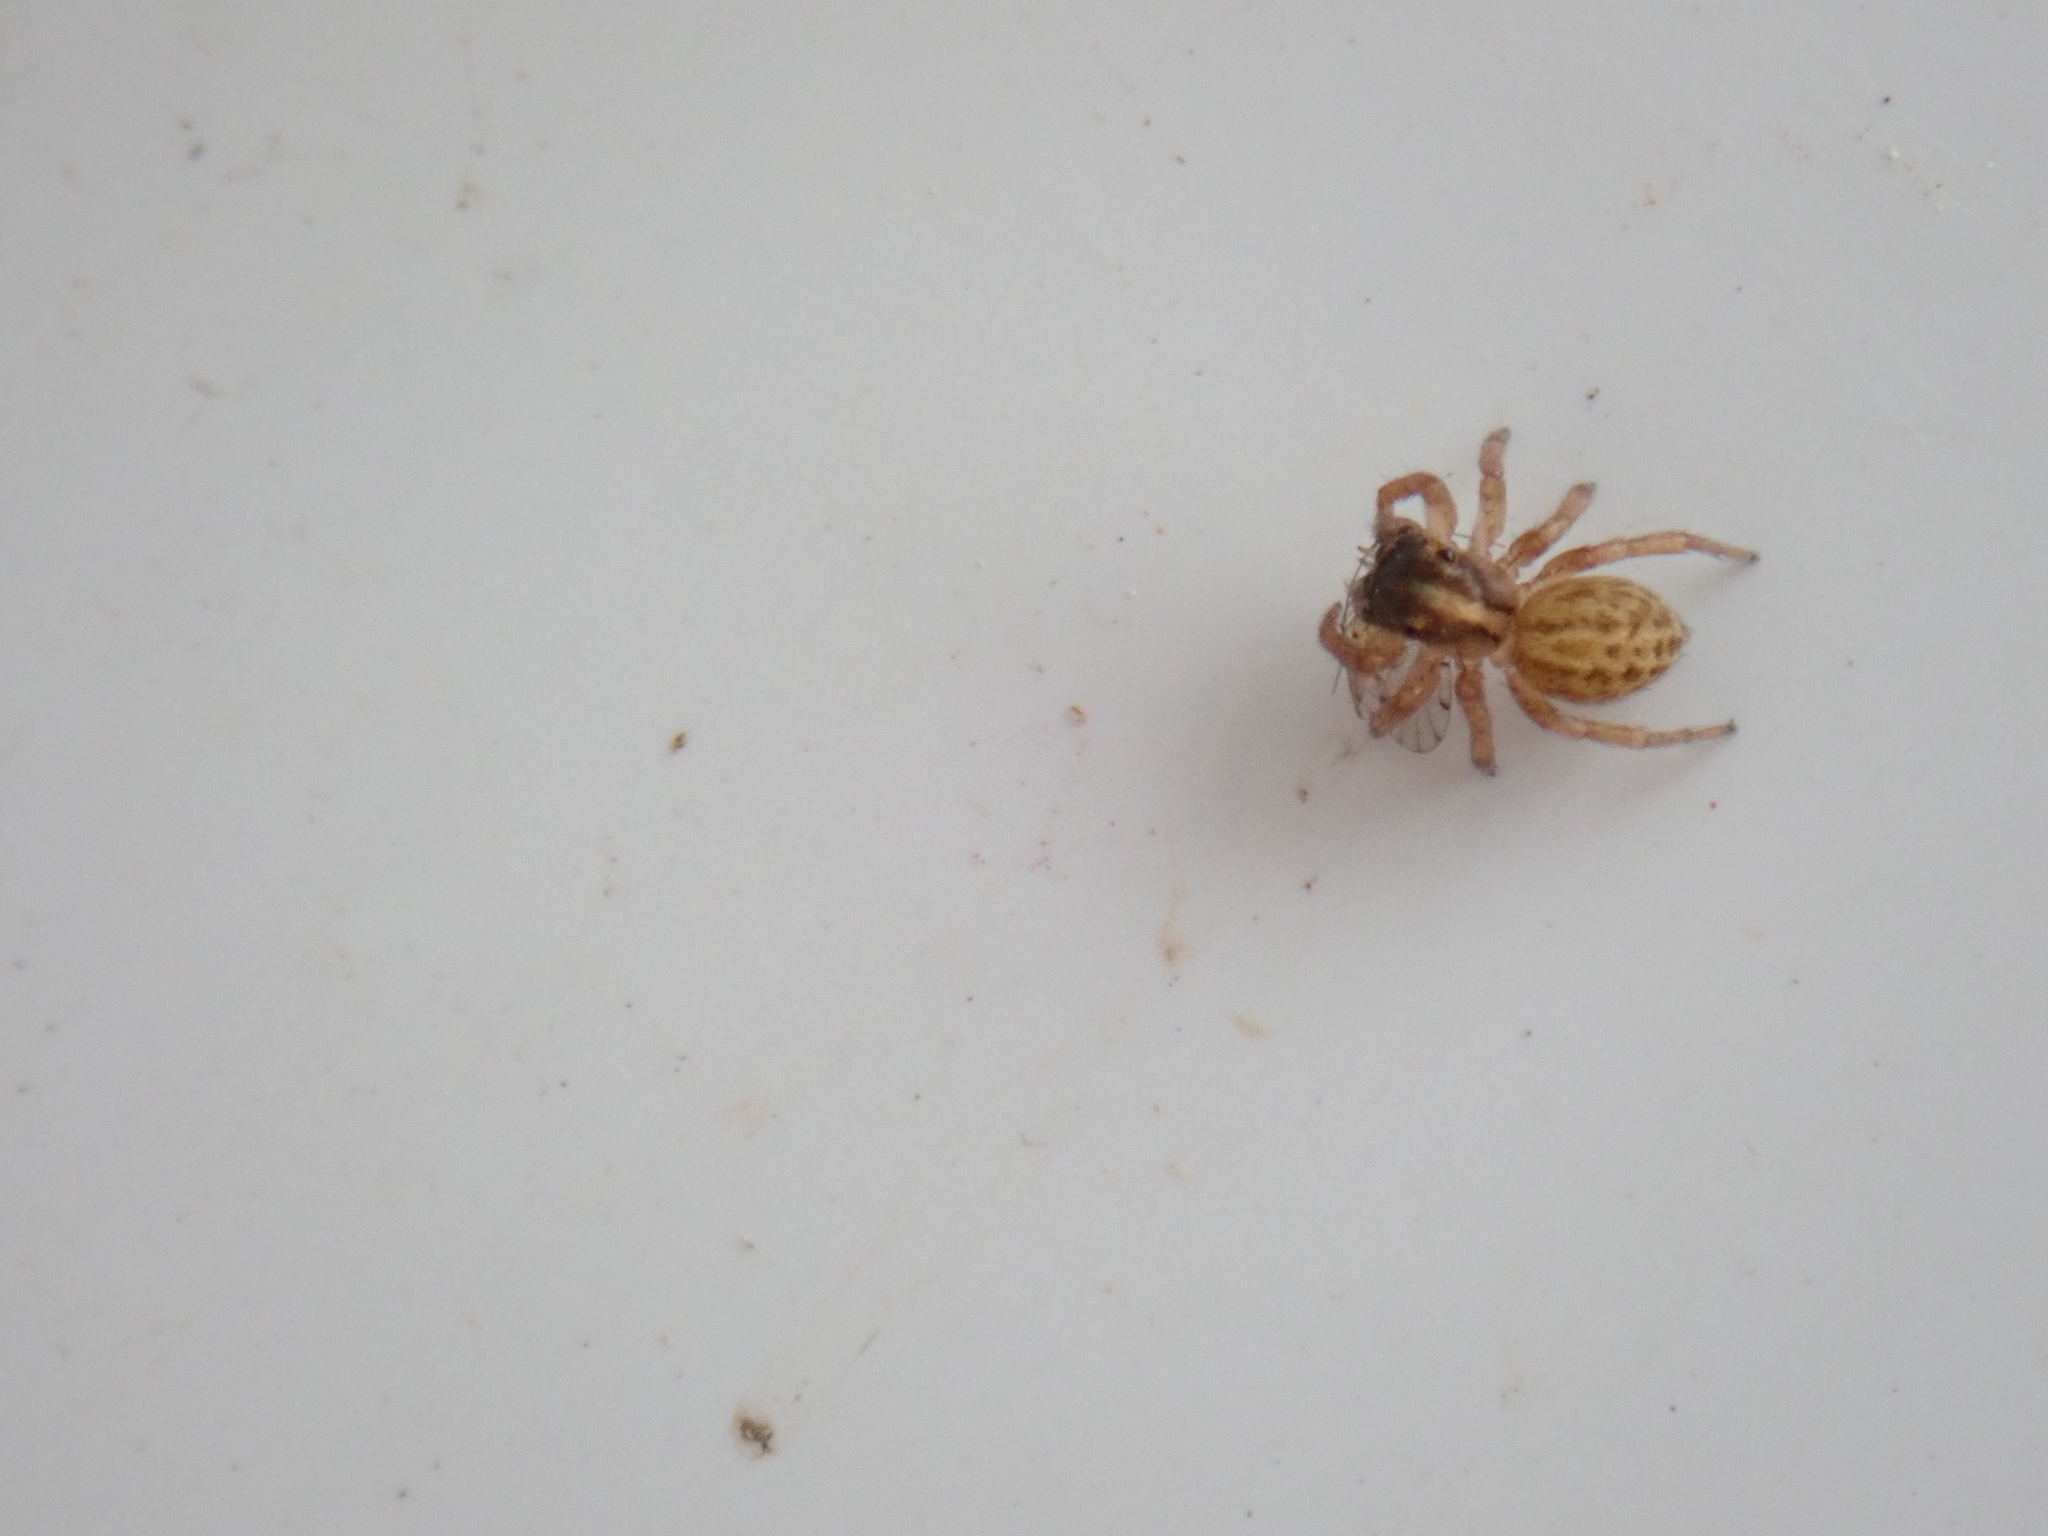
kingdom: Animalia
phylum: Arthropoda
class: Arachnida
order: Araneae
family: Salticidae
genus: Saitis
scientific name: Saitis tauricus
